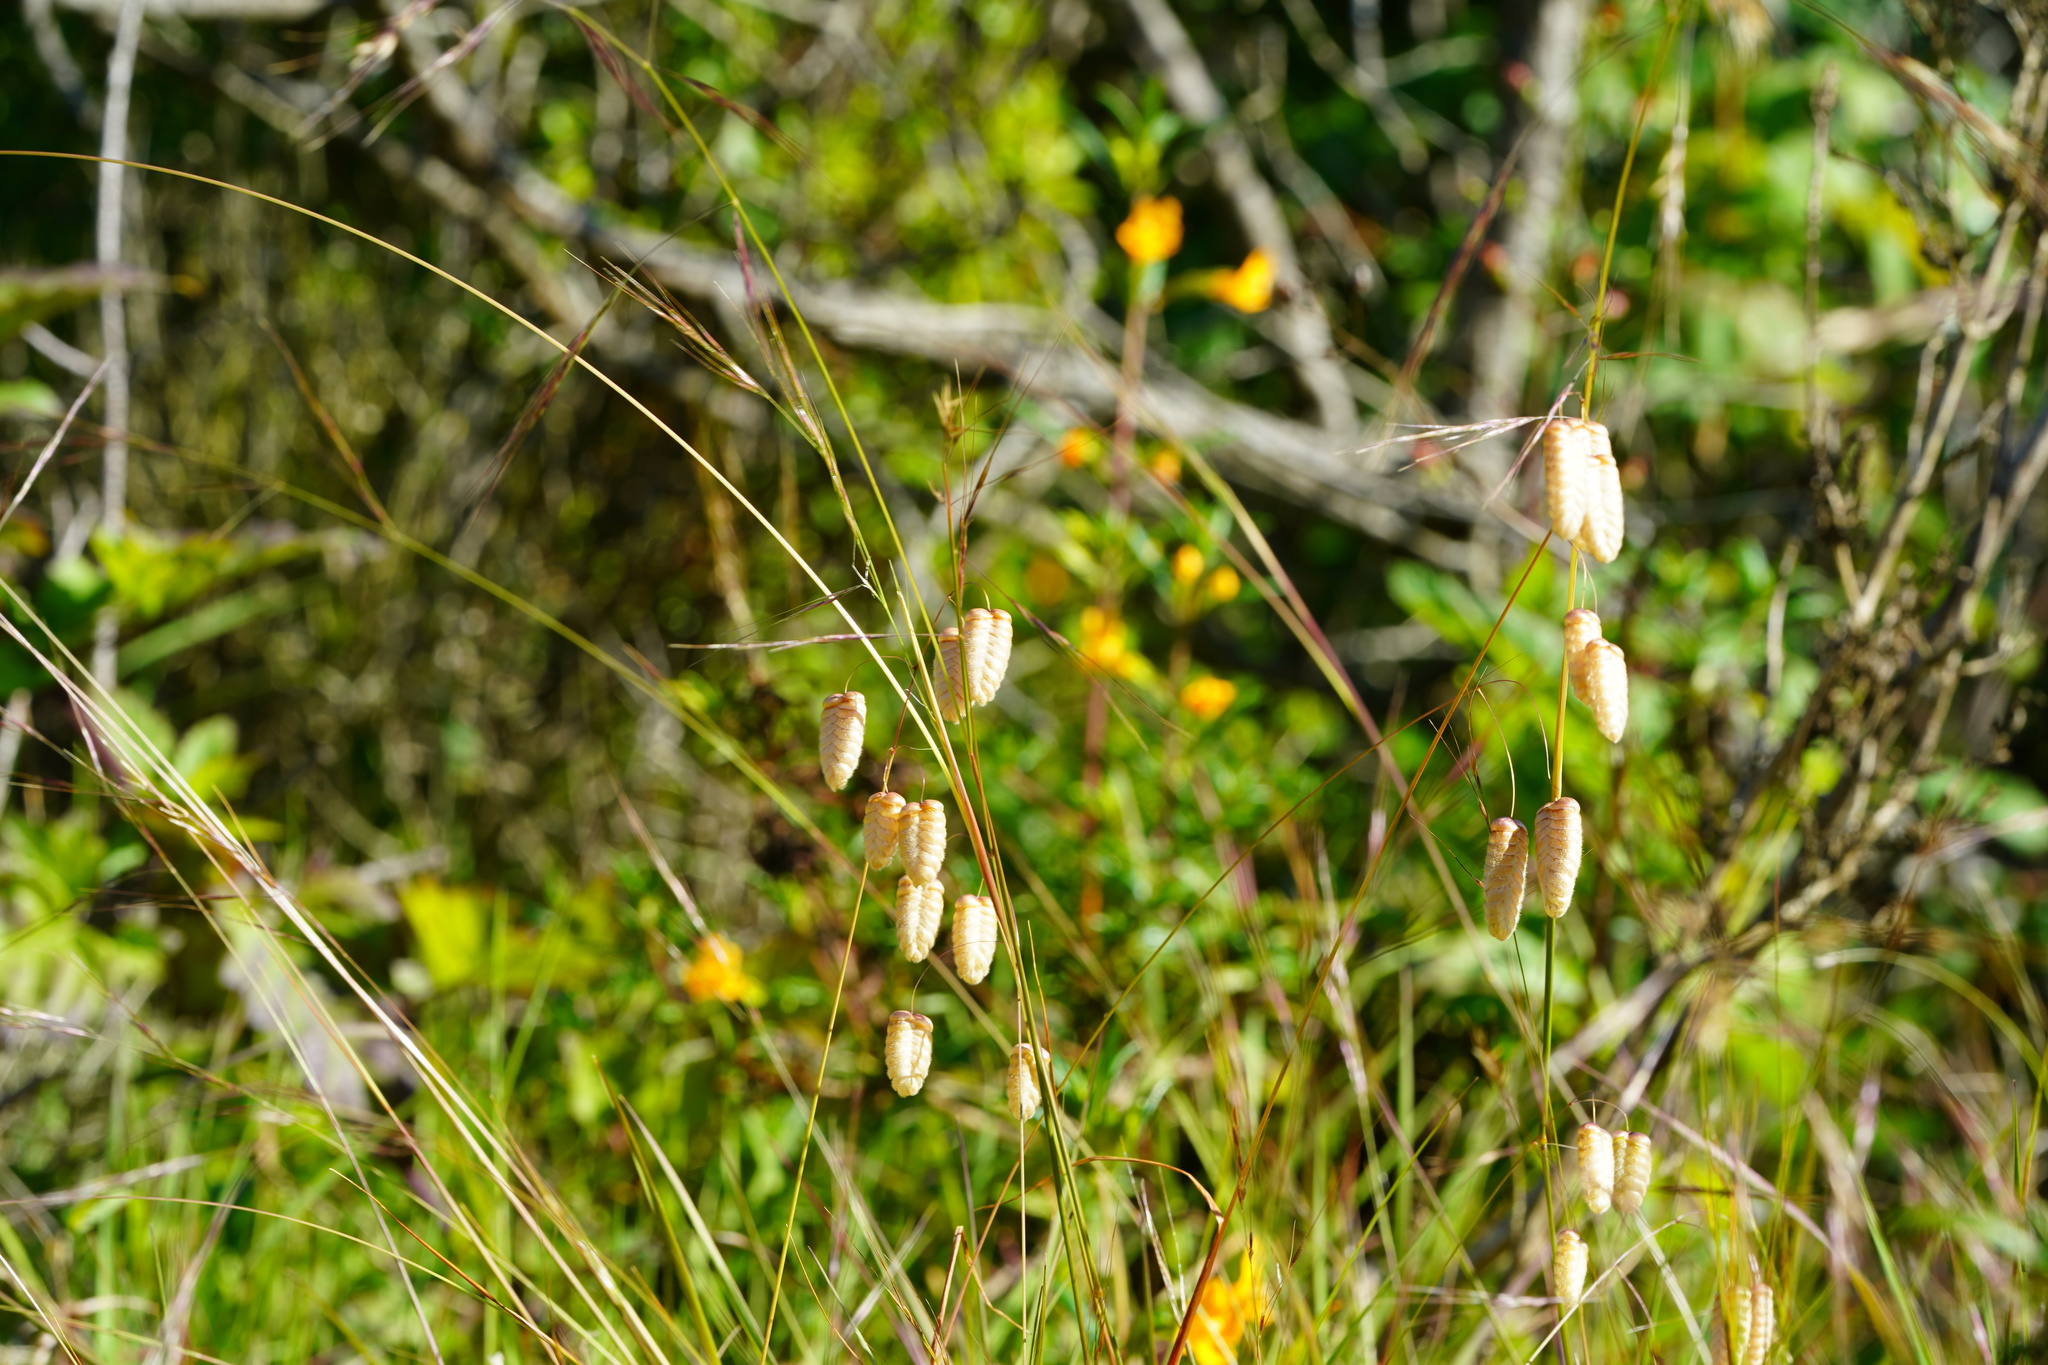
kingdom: Plantae
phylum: Tracheophyta
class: Liliopsida
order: Poales
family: Poaceae
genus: Briza
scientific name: Briza maxima
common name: Big quakinggrass
